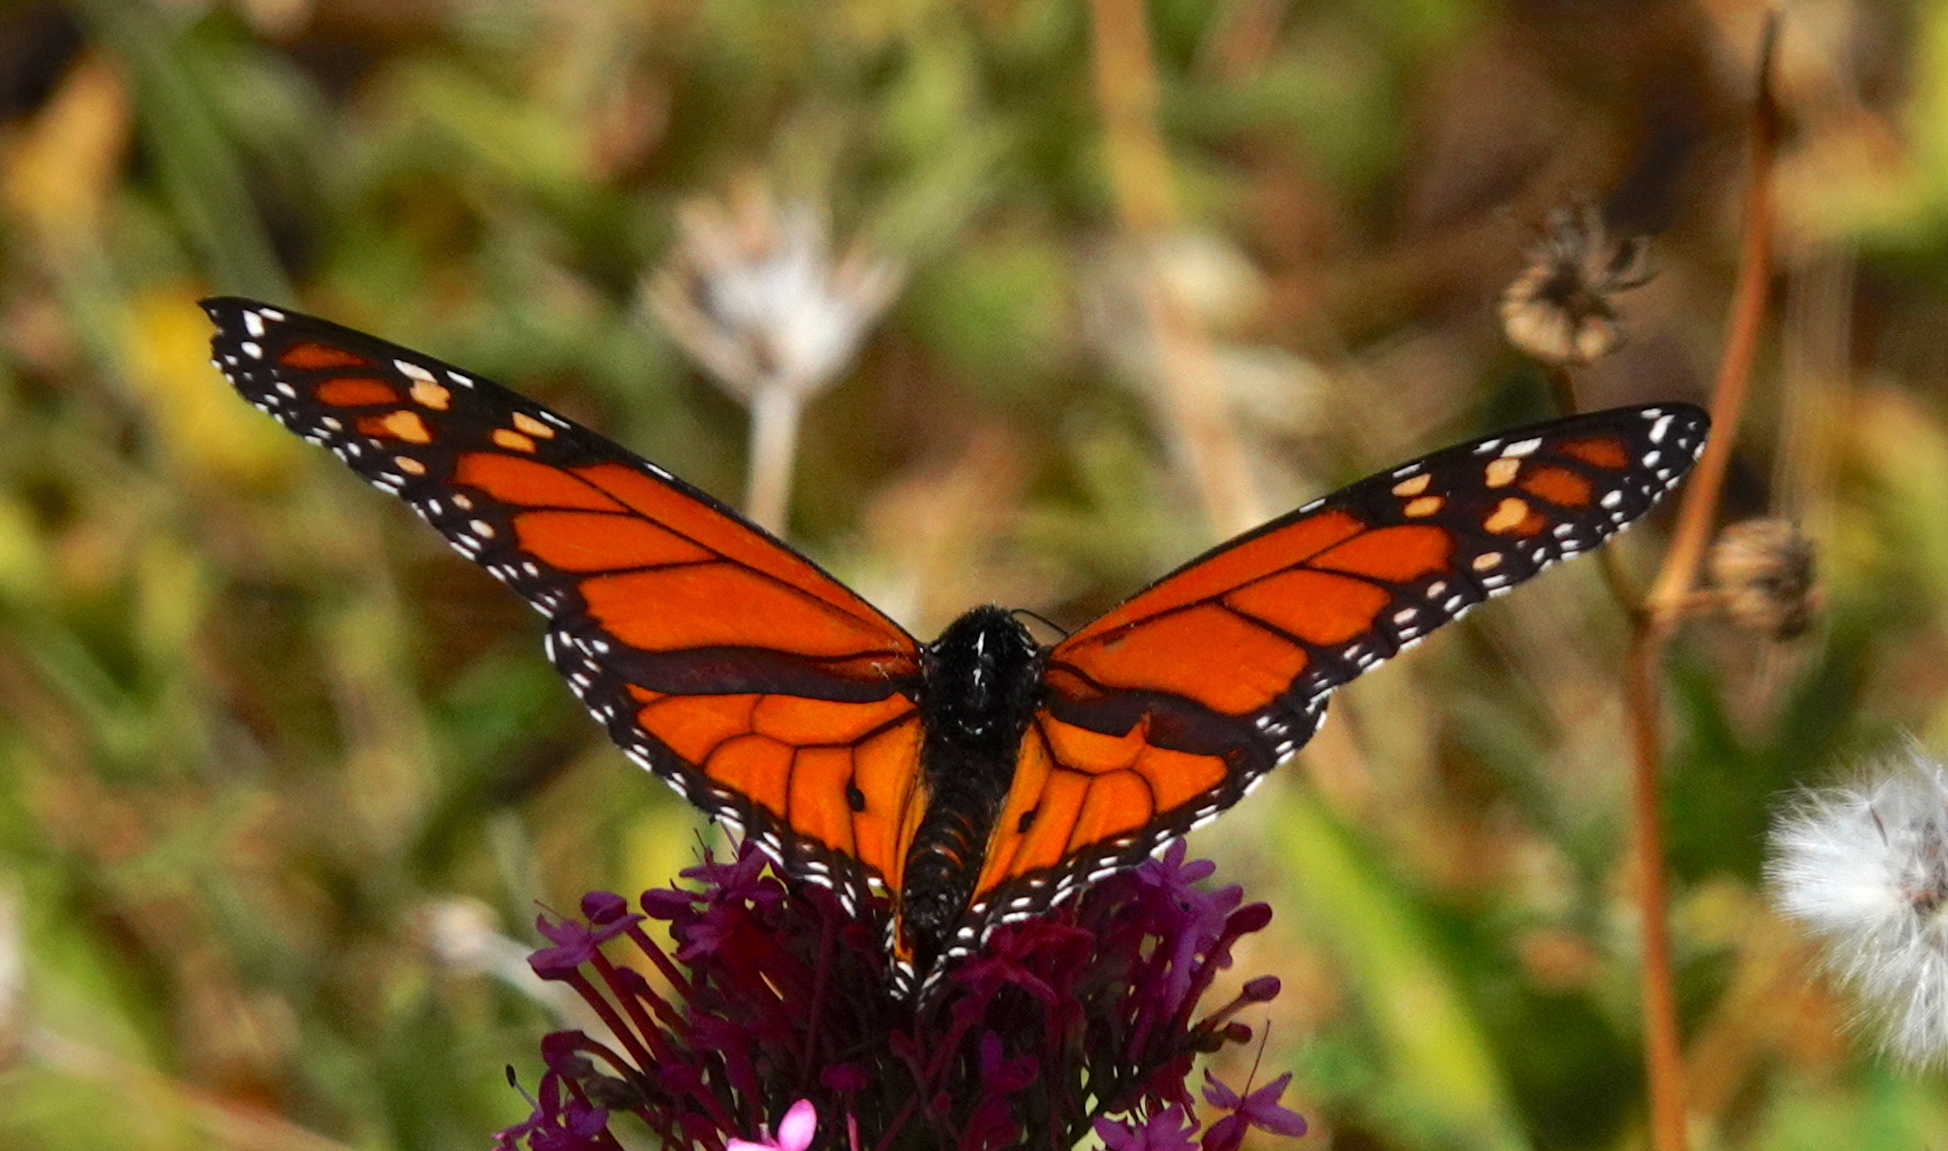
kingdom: Animalia
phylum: Arthropoda
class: Insecta
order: Lepidoptera
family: Nymphalidae
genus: Danaus
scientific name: Danaus plexippus
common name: Monarch
